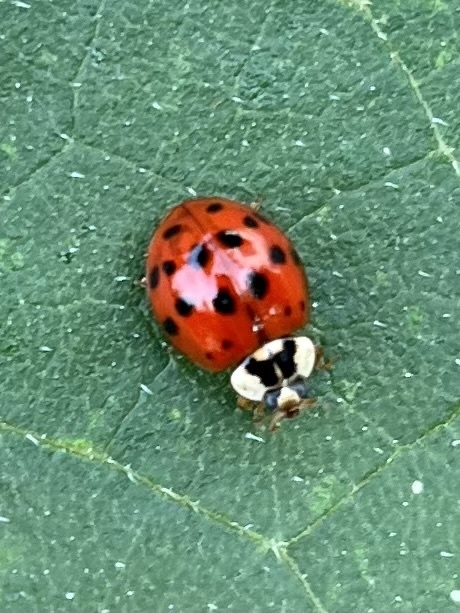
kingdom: Animalia
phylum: Arthropoda
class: Insecta
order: Coleoptera
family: Coccinellidae
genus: Harmonia
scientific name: Harmonia axyridis
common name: Harlequin ladybird
